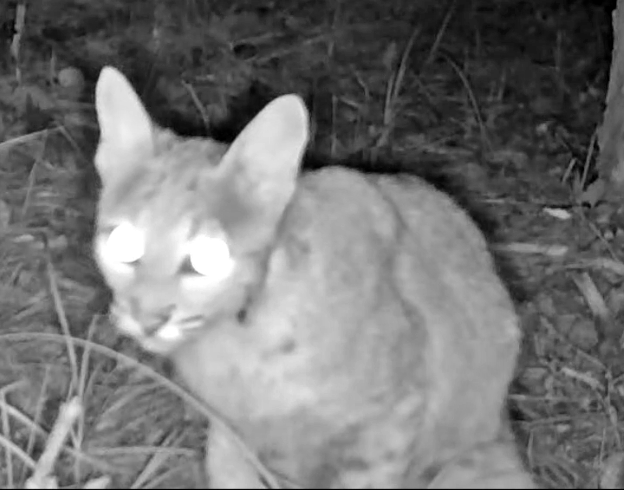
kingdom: Animalia
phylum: Chordata
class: Mammalia
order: Carnivora
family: Felidae
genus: Lynx
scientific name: Lynx rufus
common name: Bobcat
